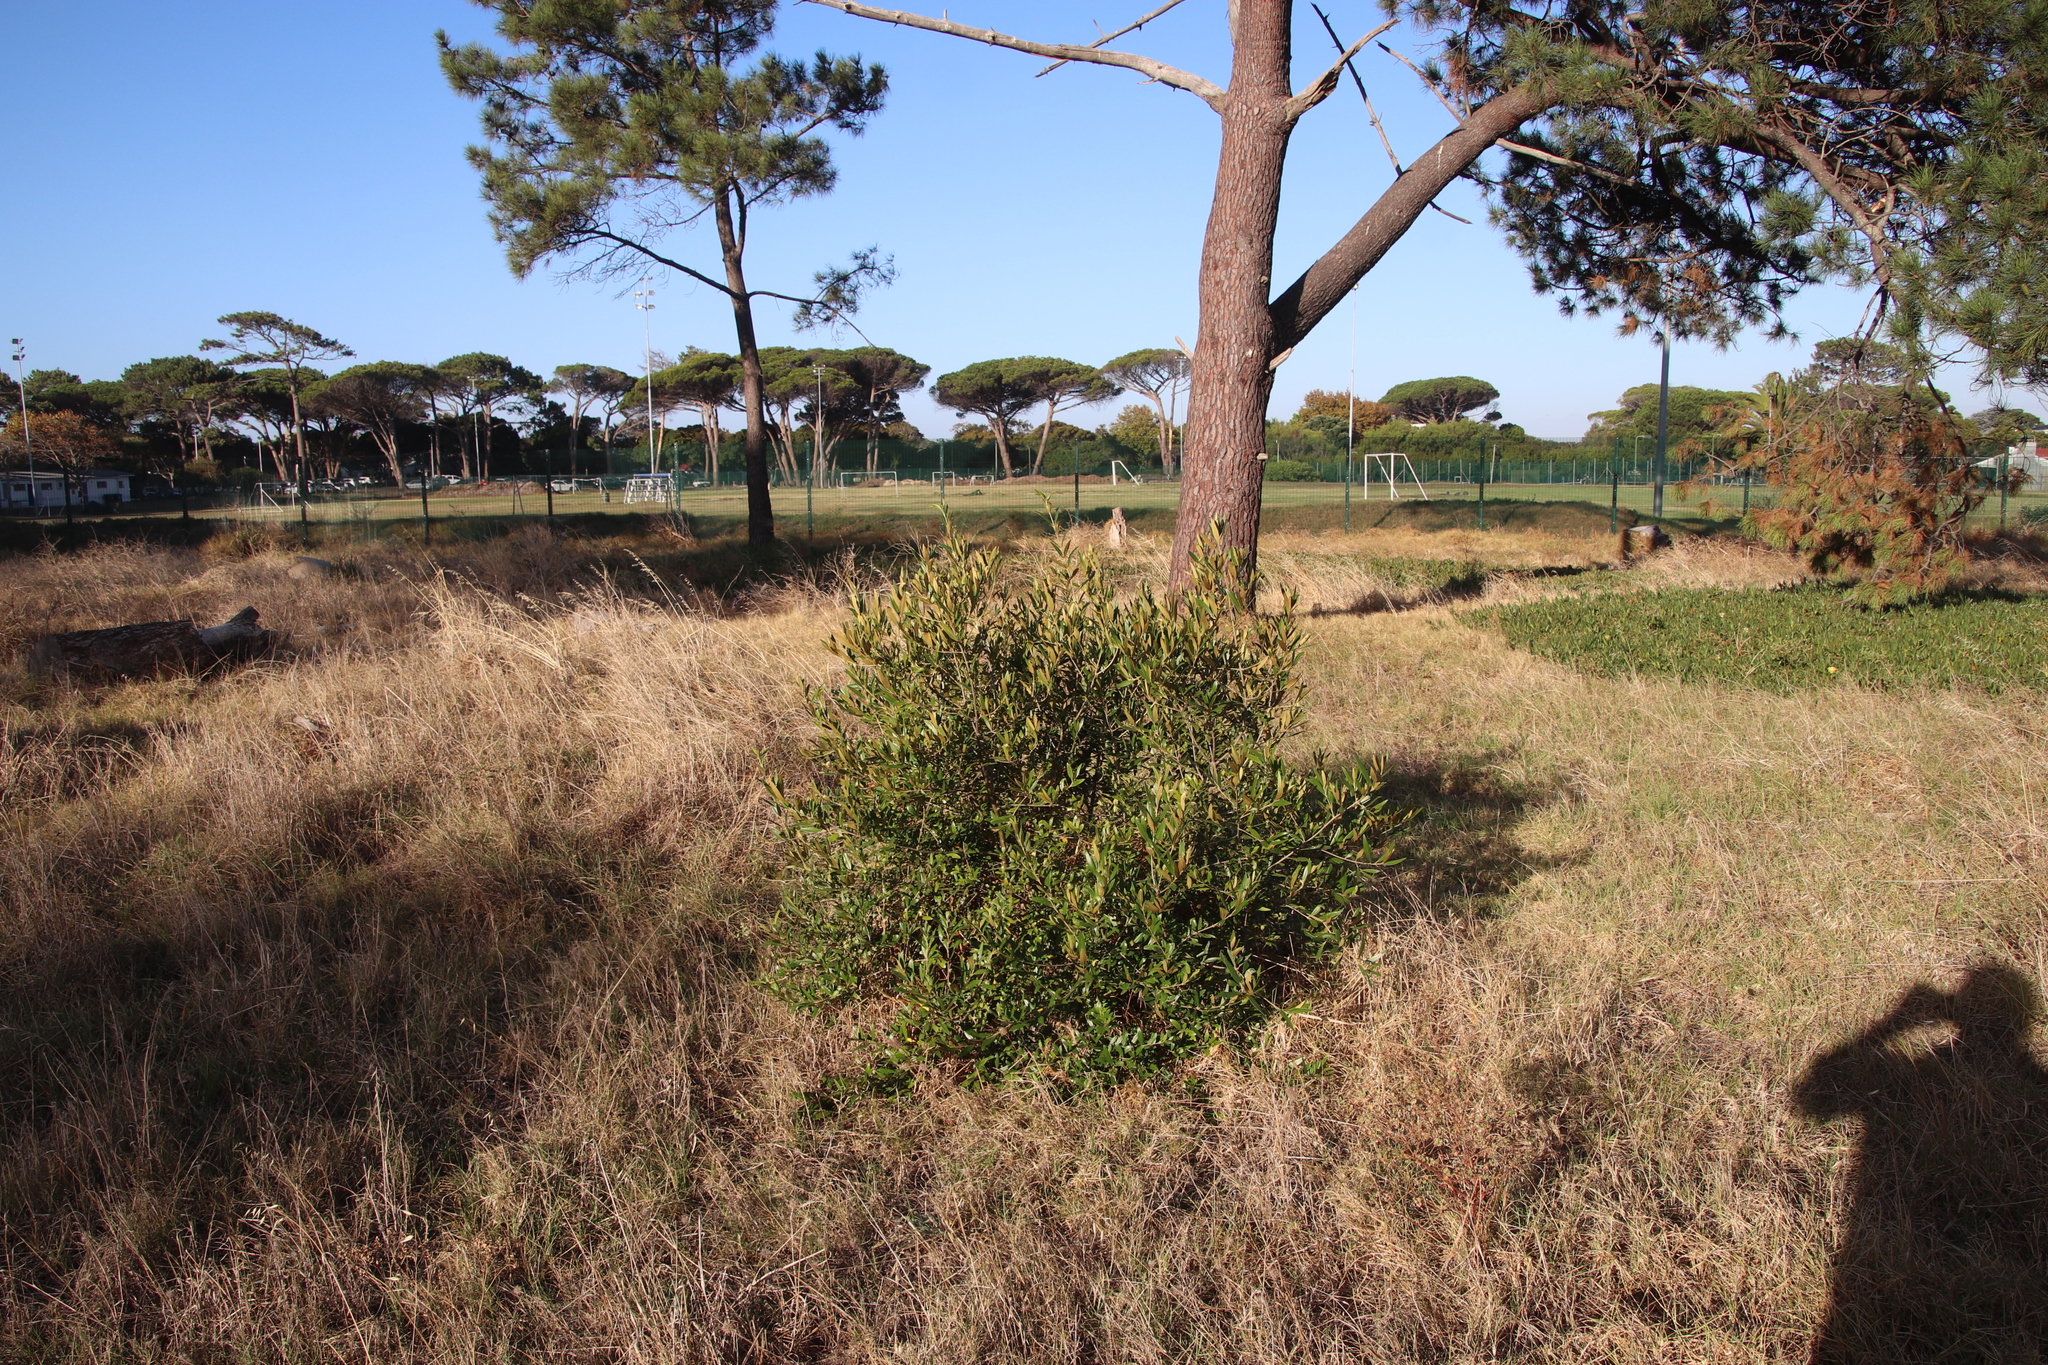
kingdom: Plantae
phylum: Tracheophyta
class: Magnoliopsida
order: Lamiales
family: Oleaceae
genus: Olea
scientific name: Olea europaea
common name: Olive
